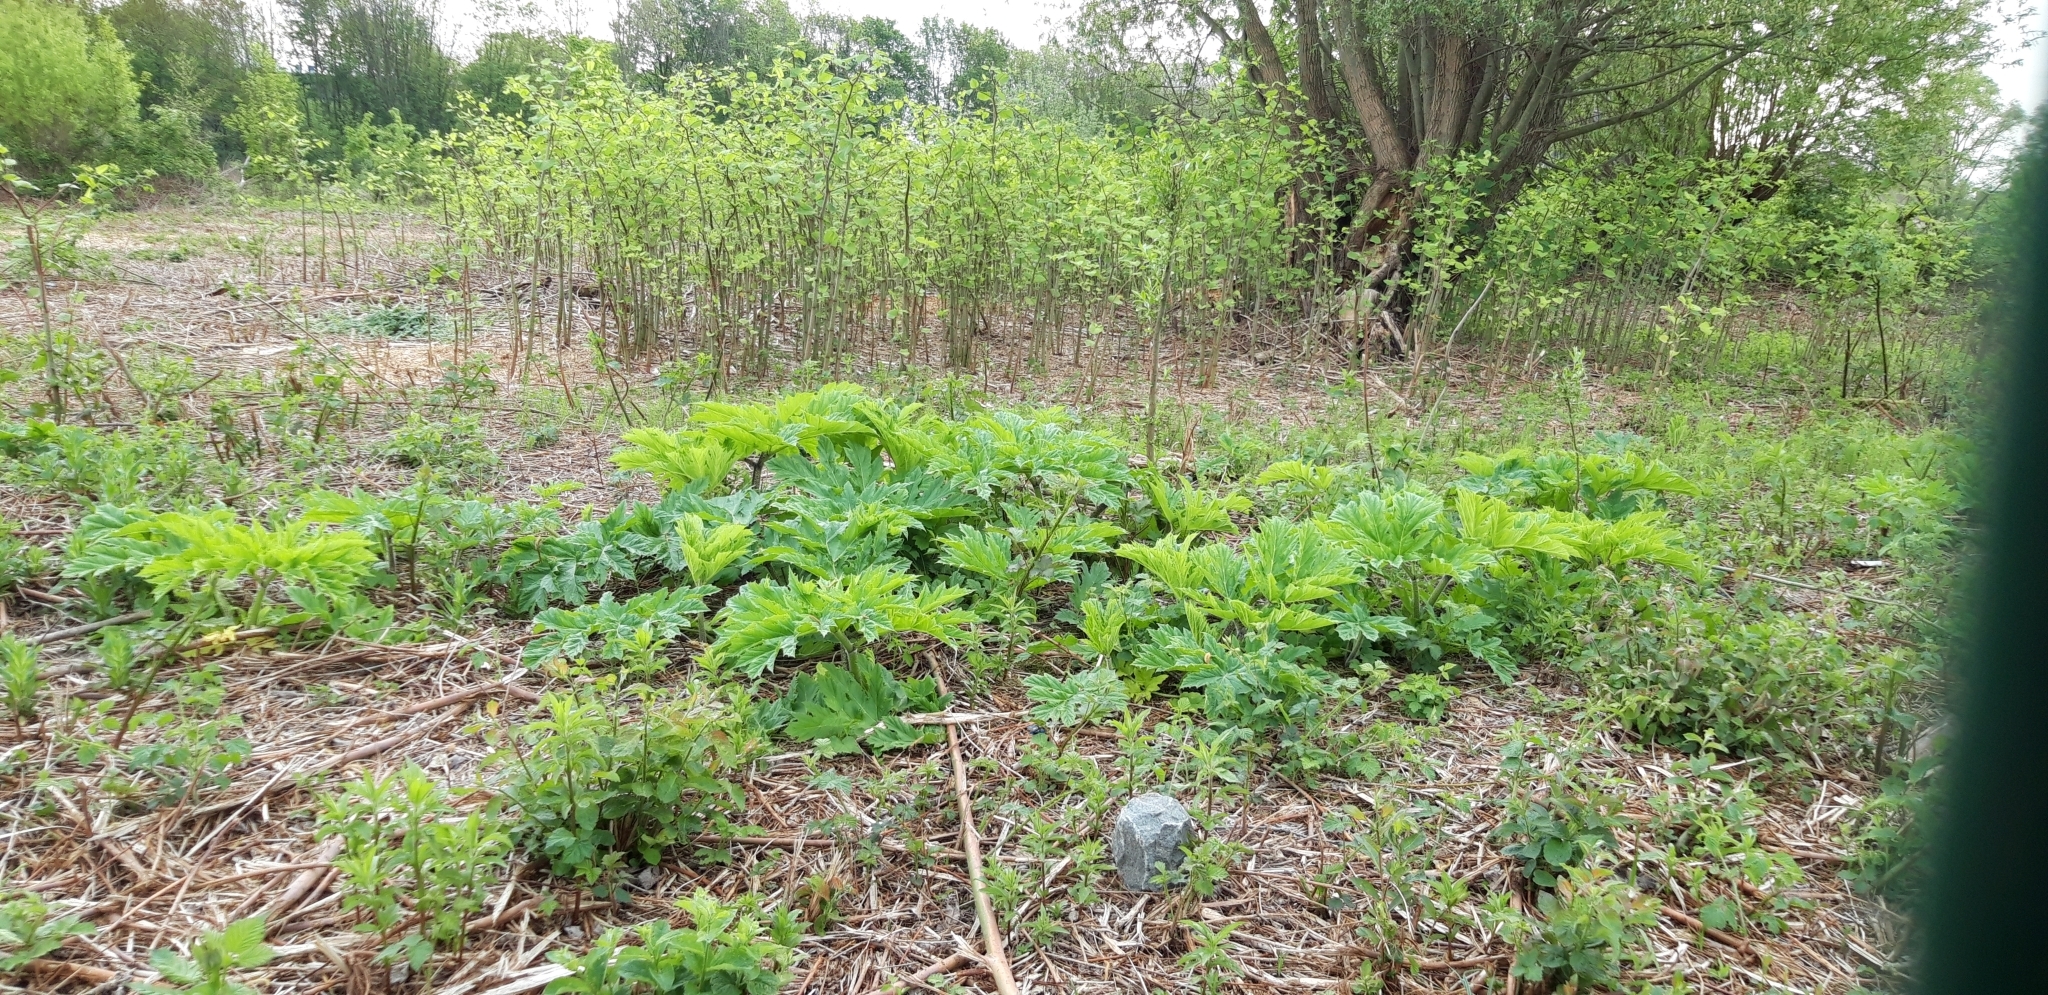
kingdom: Plantae
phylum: Tracheophyta
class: Magnoliopsida
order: Apiales
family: Apiaceae
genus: Heracleum
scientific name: Heracleum mantegazzianum
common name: Giant hogweed
